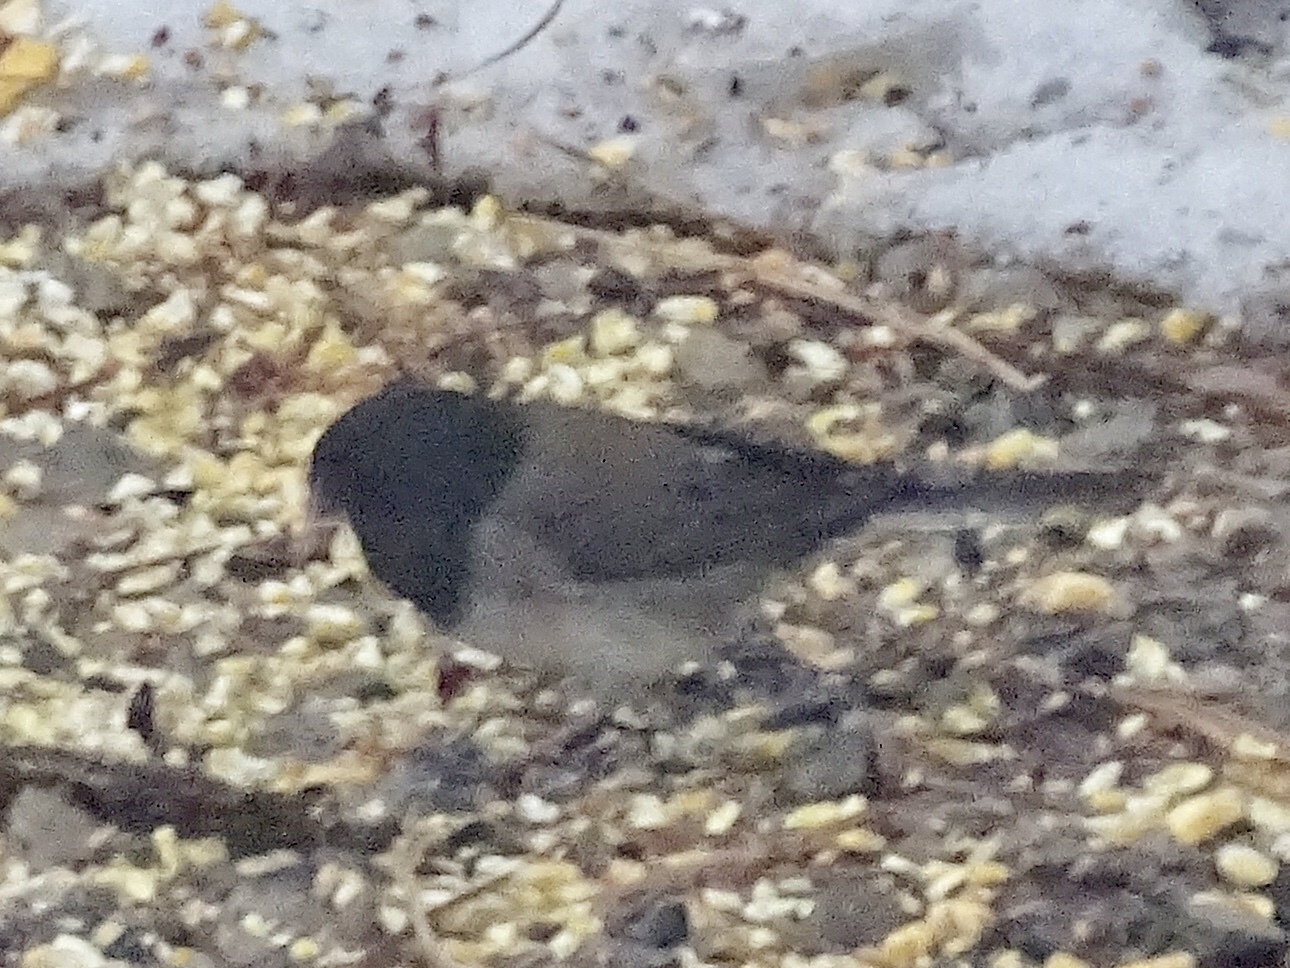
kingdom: Animalia
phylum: Chordata
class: Aves
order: Passeriformes
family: Passerellidae
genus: Junco
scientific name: Junco
